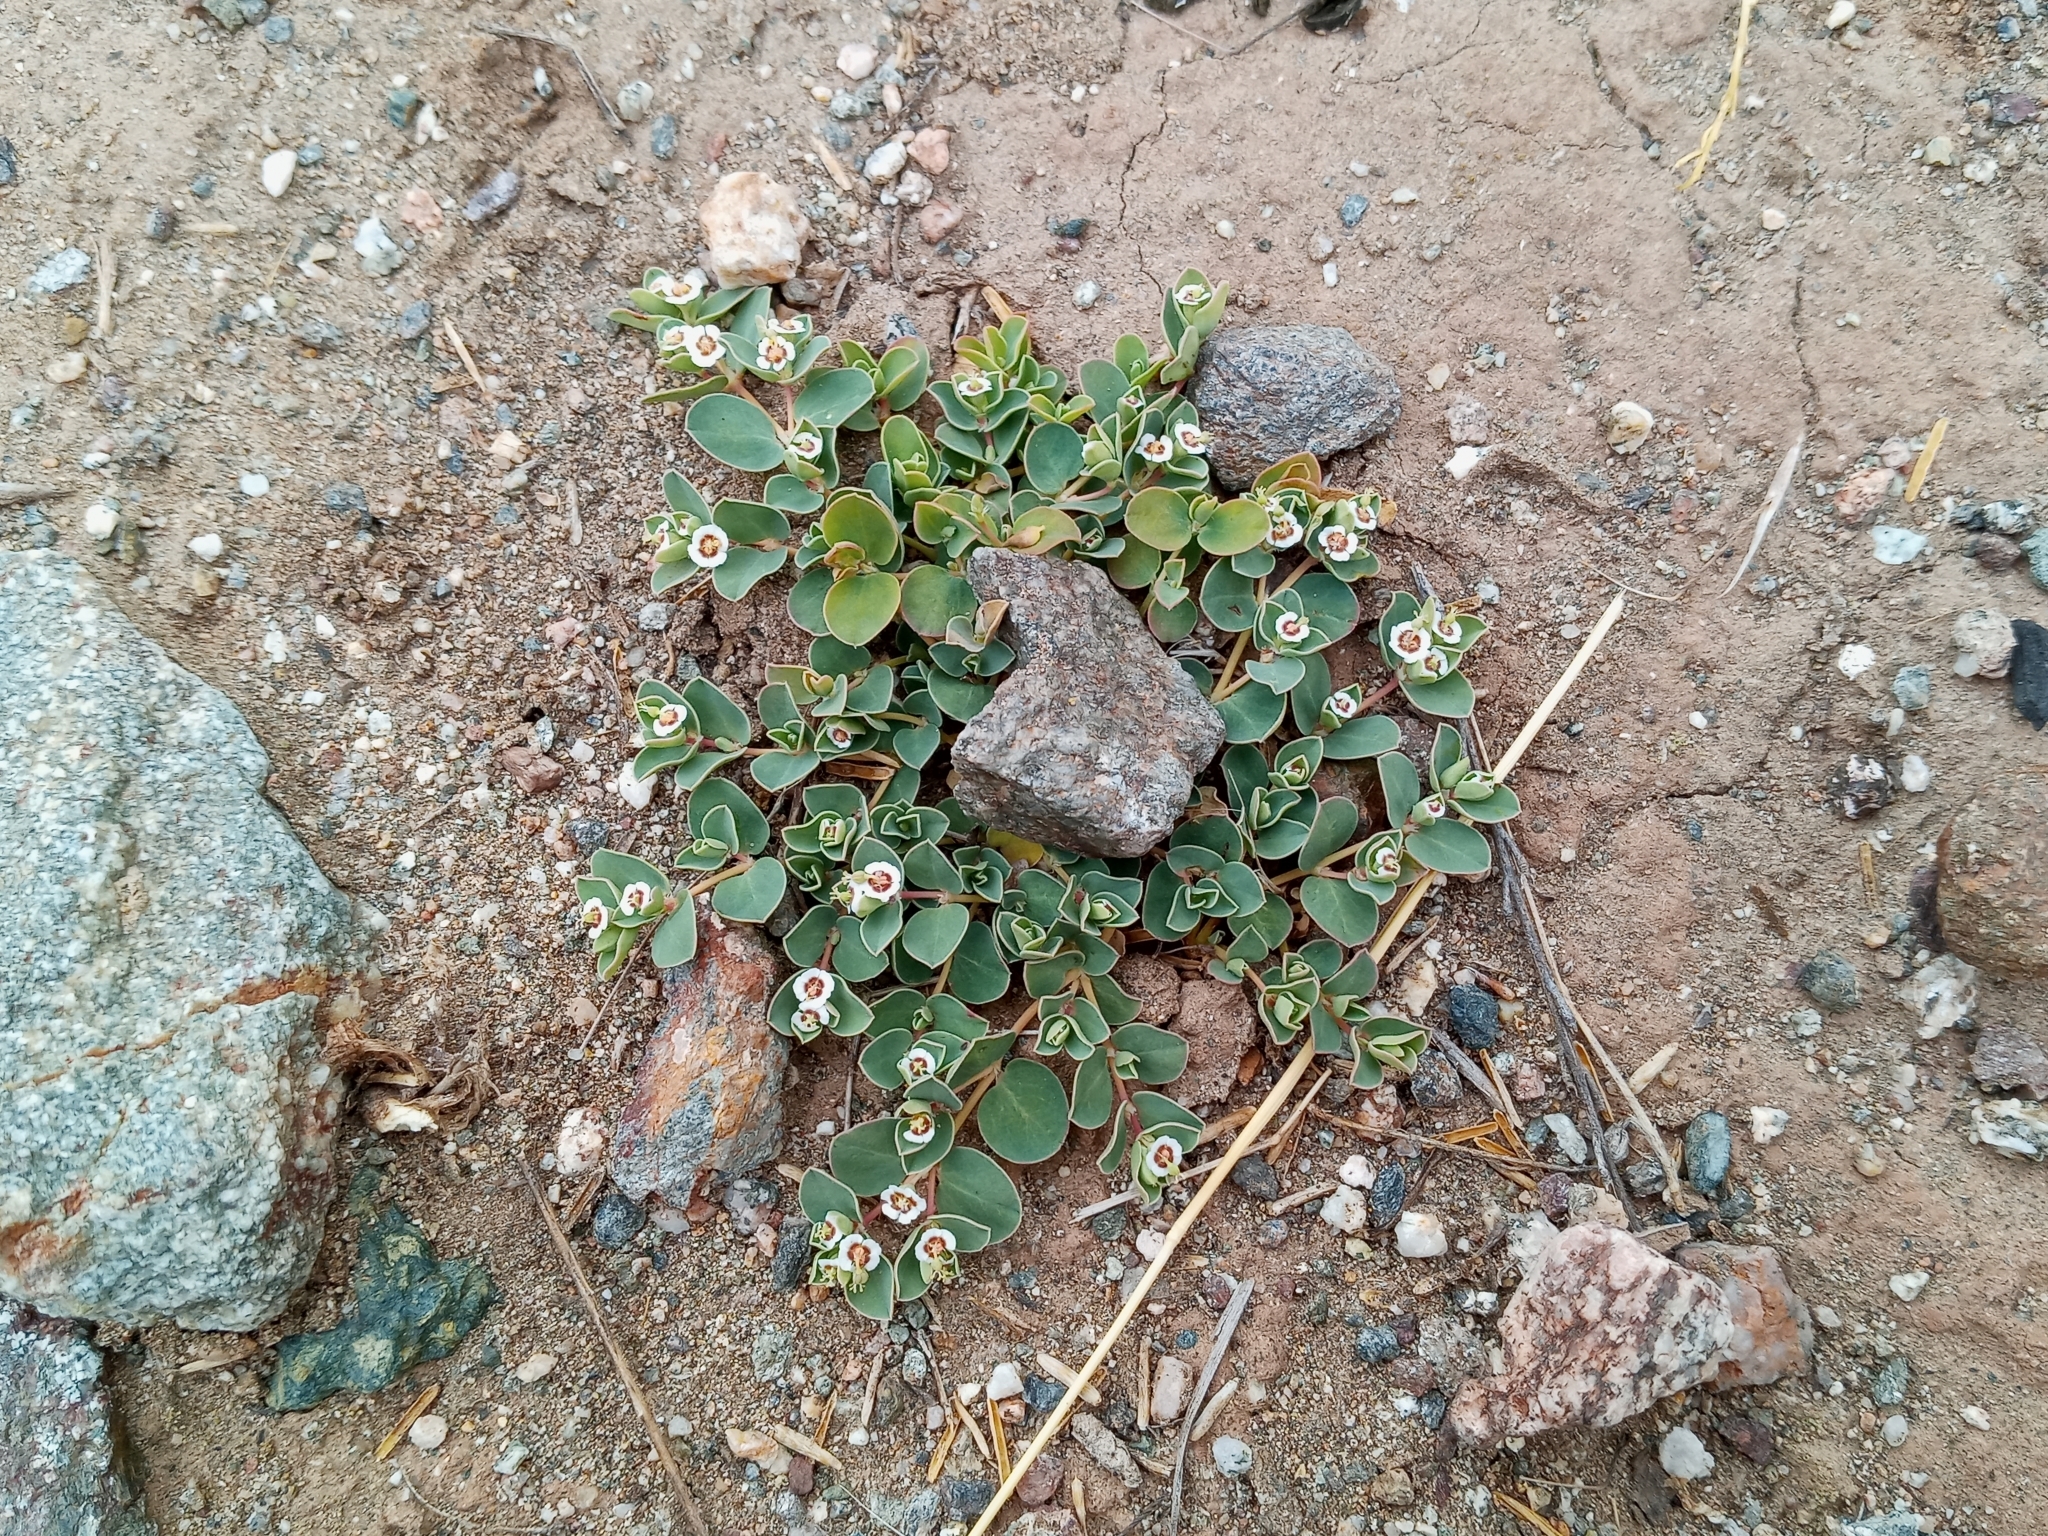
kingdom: Plantae
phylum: Tracheophyta
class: Magnoliopsida
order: Malpighiales
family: Euphorbiaceae
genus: Euphorbia
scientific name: Euphorbia albomarginata
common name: Whitemargin sandmat
